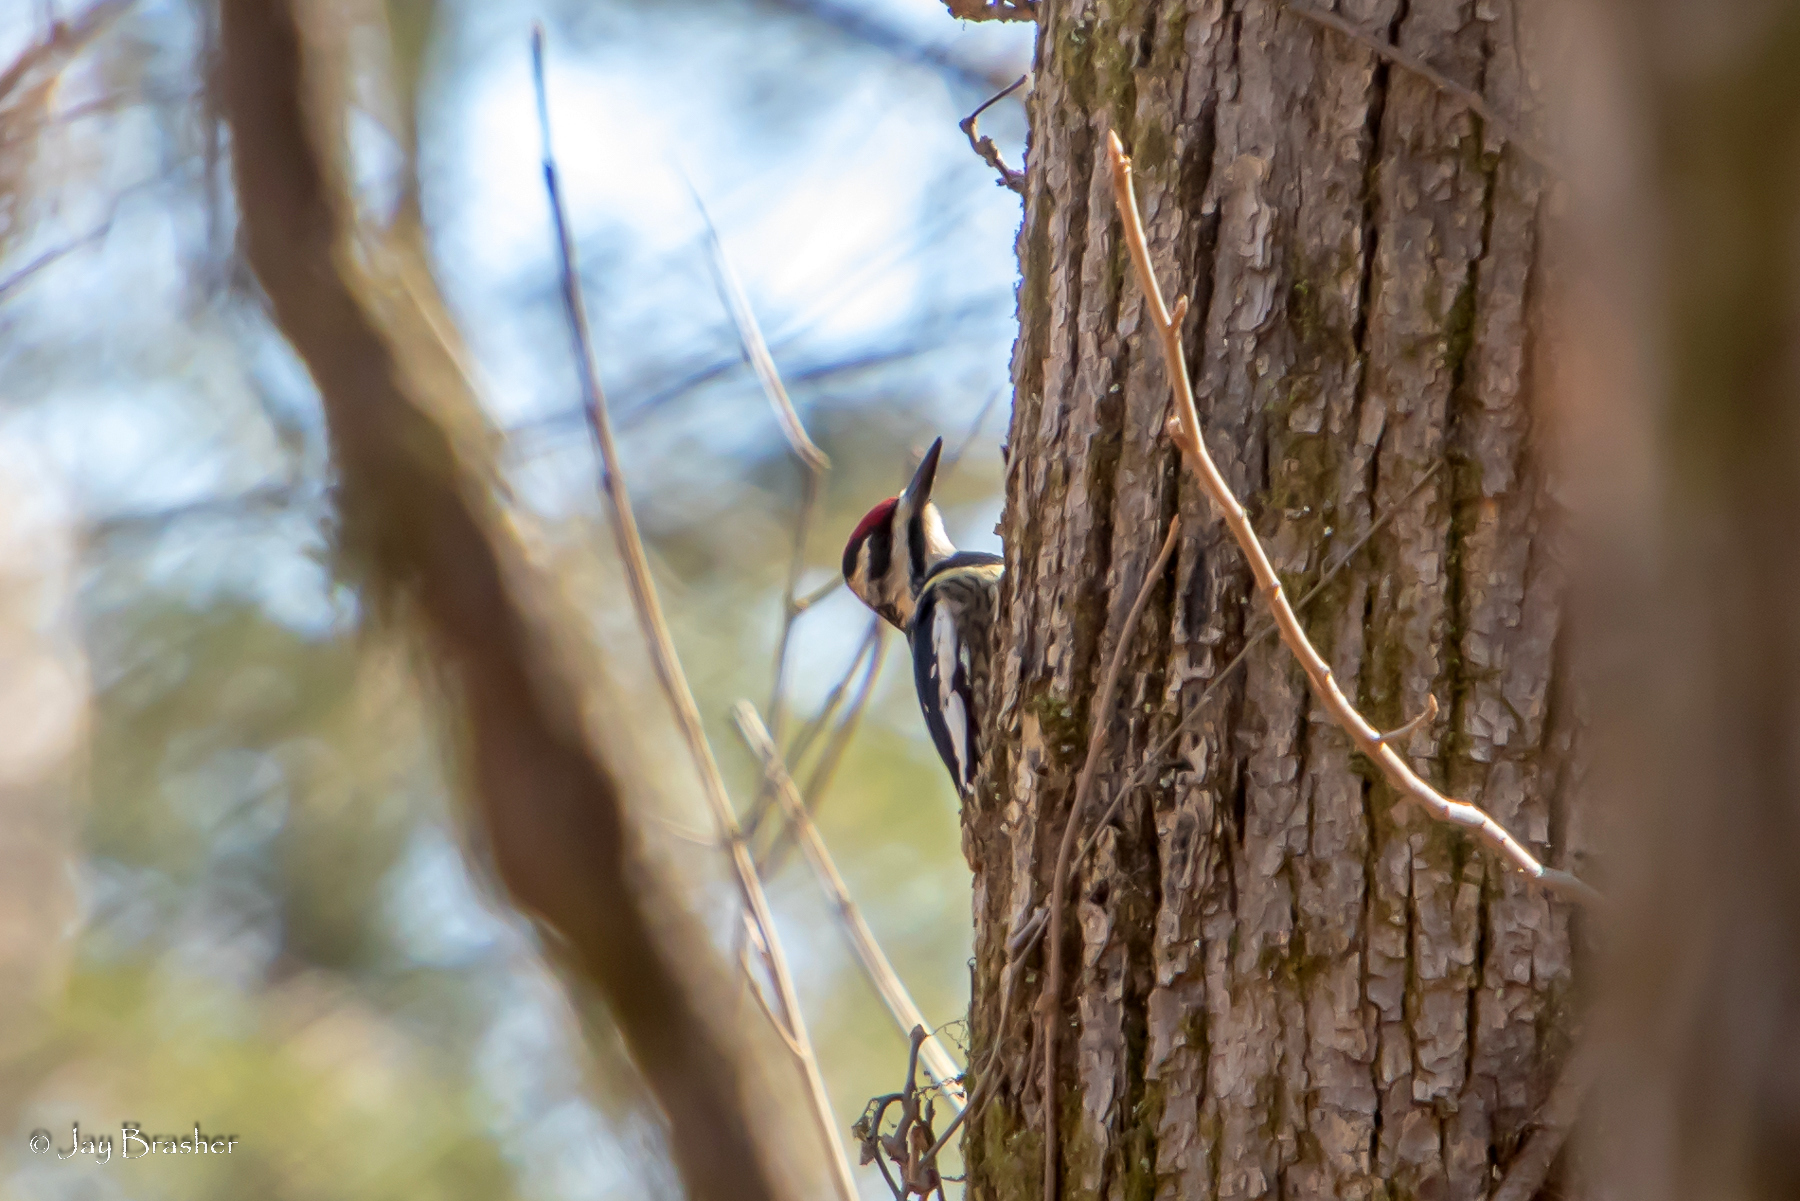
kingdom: Animalia
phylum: Chordata
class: Aves
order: Piciformes
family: Picidae
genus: Sphyrapicus
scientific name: Sphyrapicus varius
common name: Yellow-bellied sapsucker
